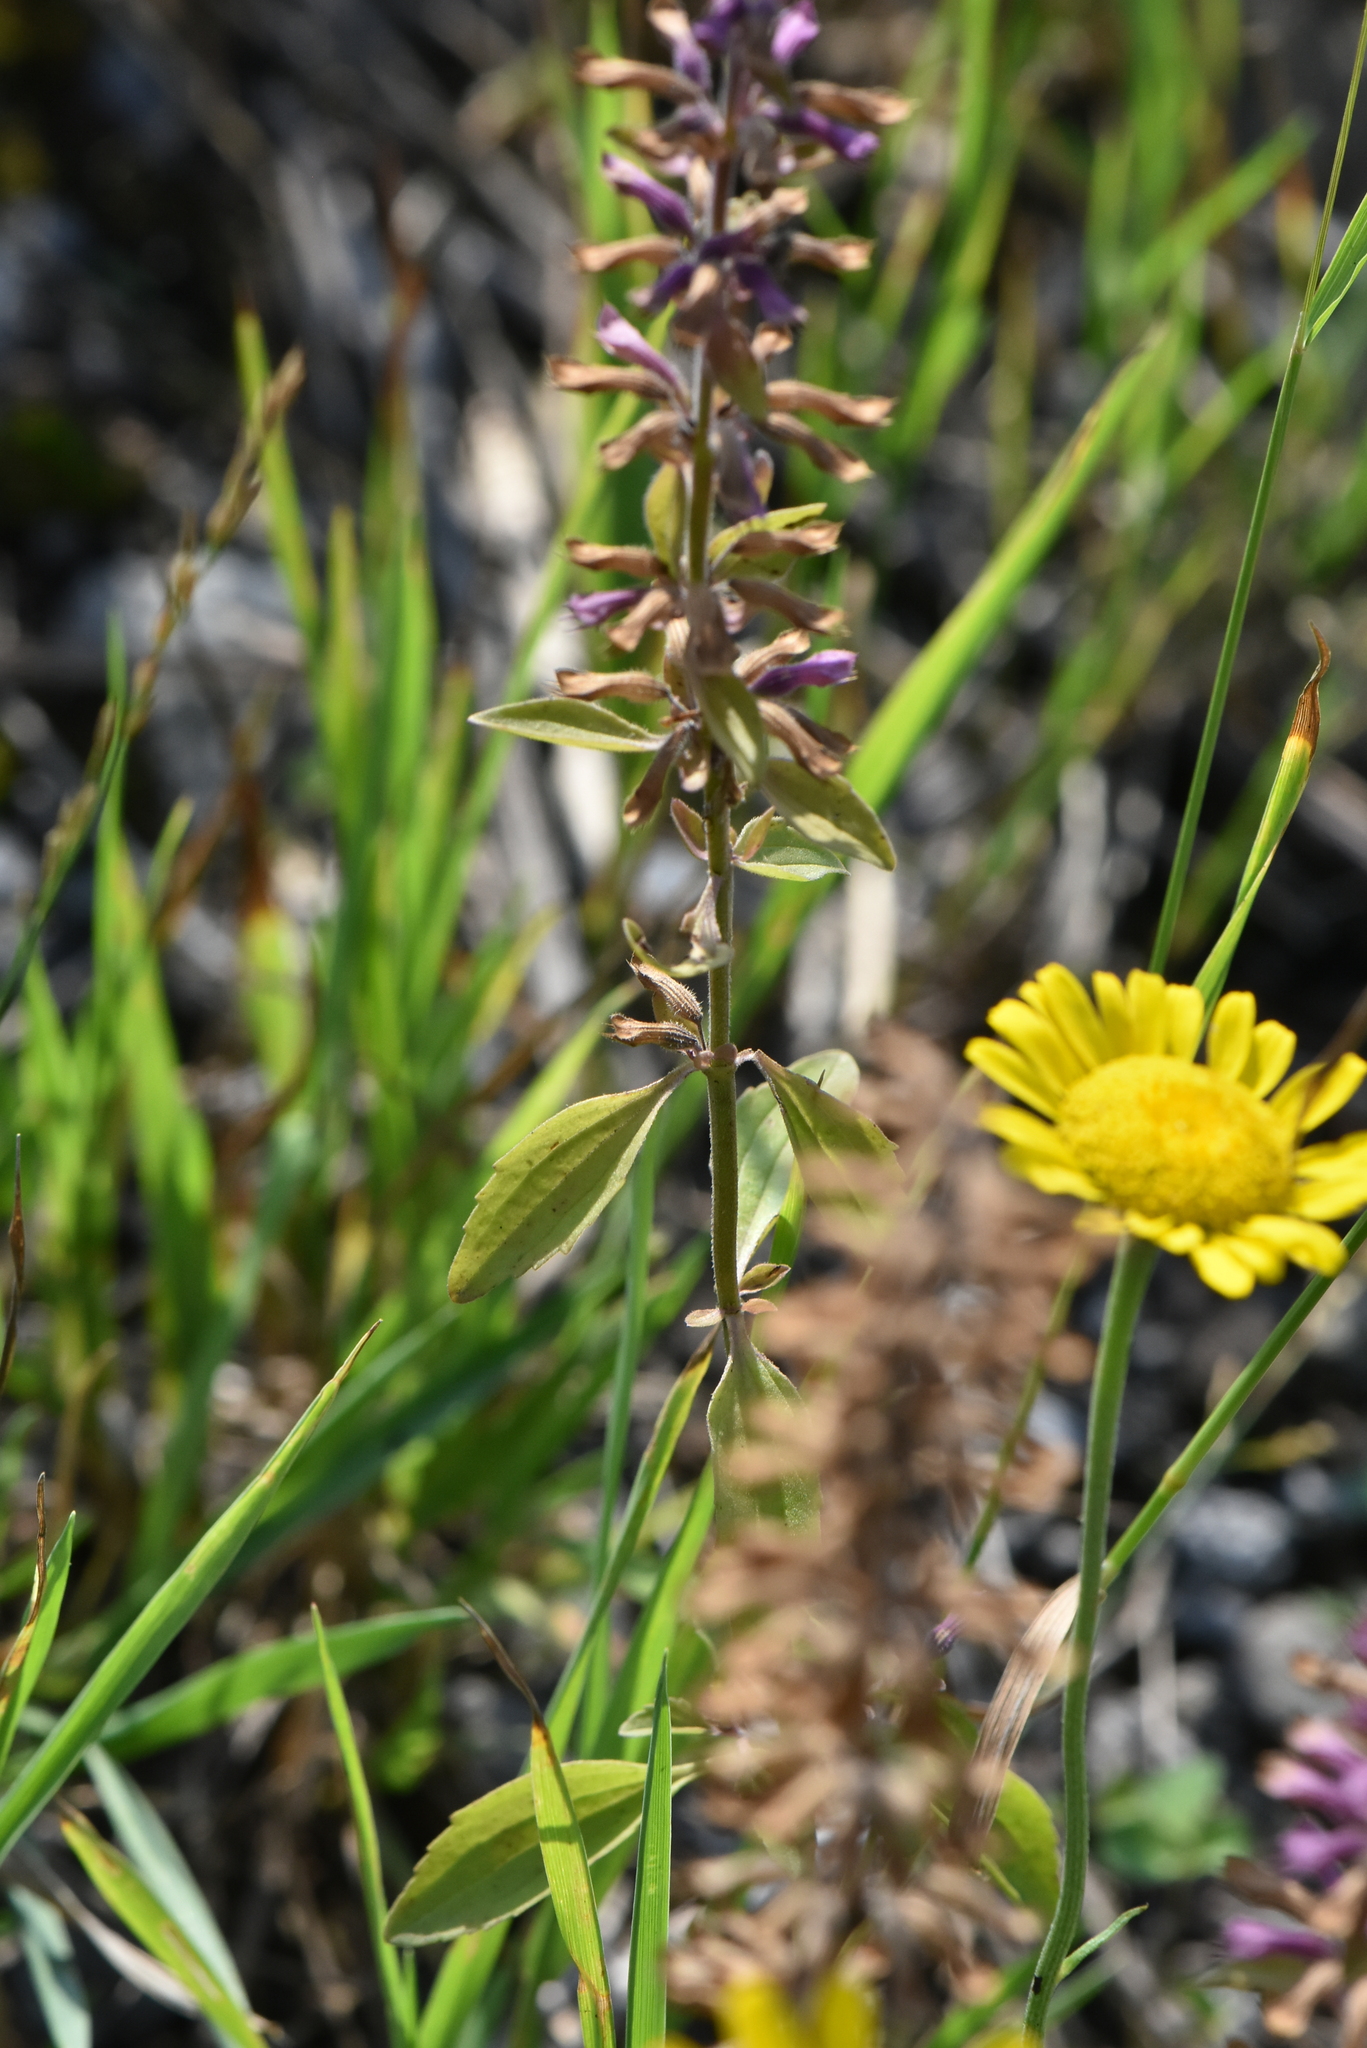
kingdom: Plantae
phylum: Tracheophyta
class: Magnoliopsida
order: Lamiales
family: Lamiaceae
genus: Dracocephalum
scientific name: Dracocephalum thymiflorum
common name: Thymeleaf dragonhead
